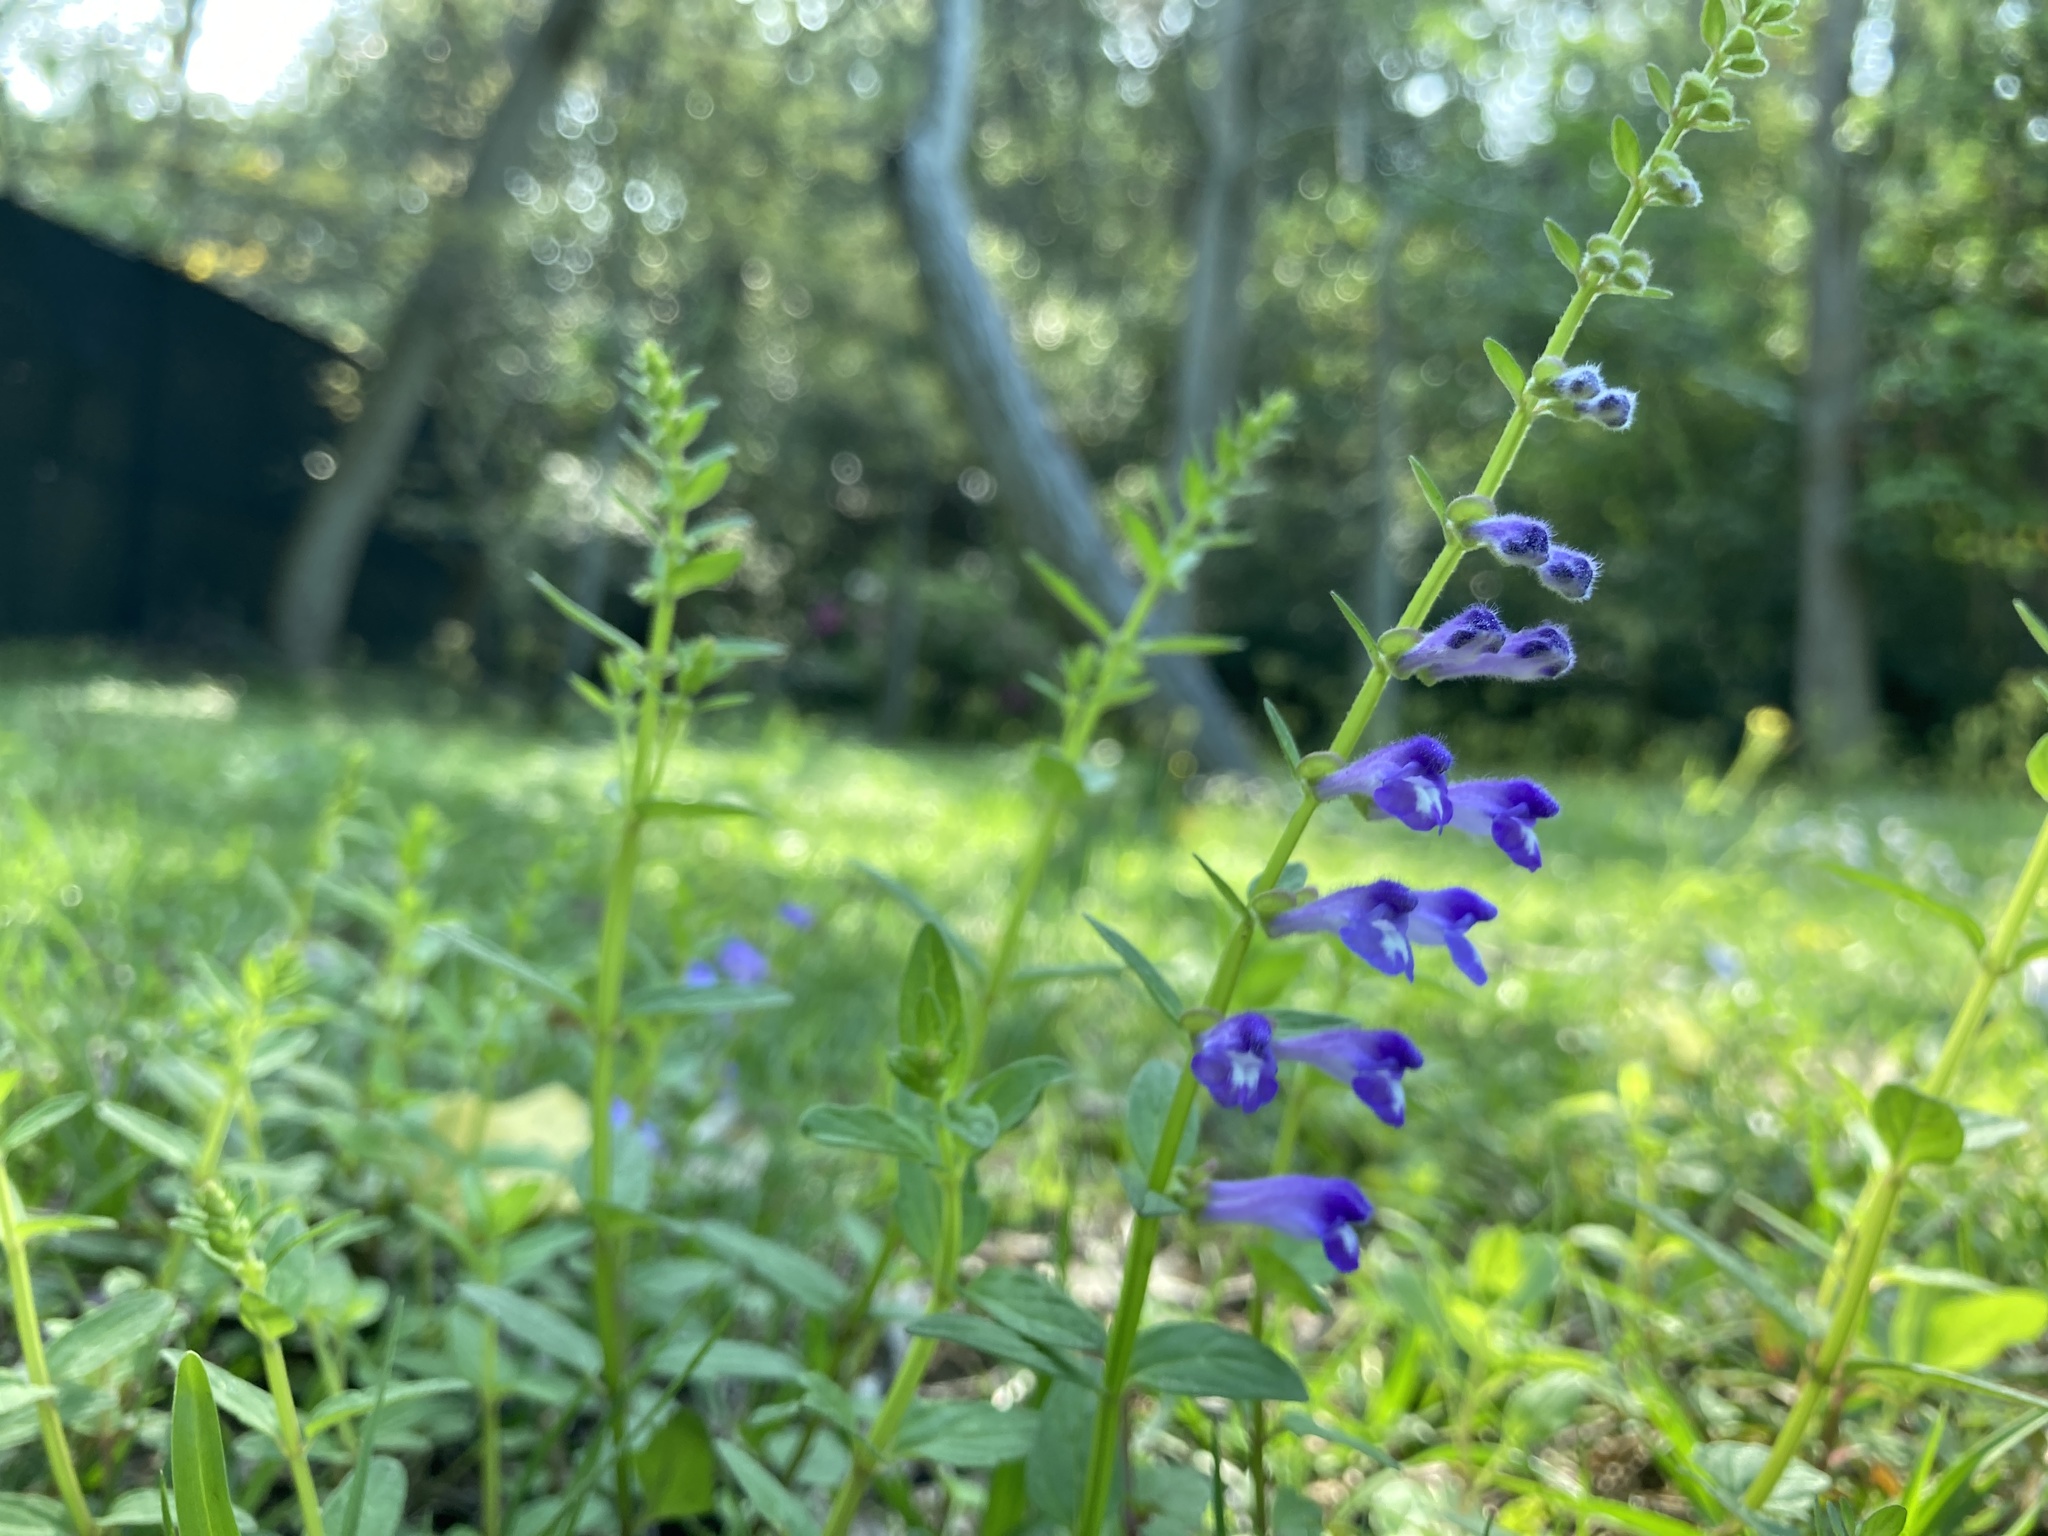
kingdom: Plantae
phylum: Tracheophyta
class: Magnoliopsida
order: Lamiales
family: Lamiaceae
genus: Scutellaria
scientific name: Scutellaria barbata
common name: Barbed skullcap
